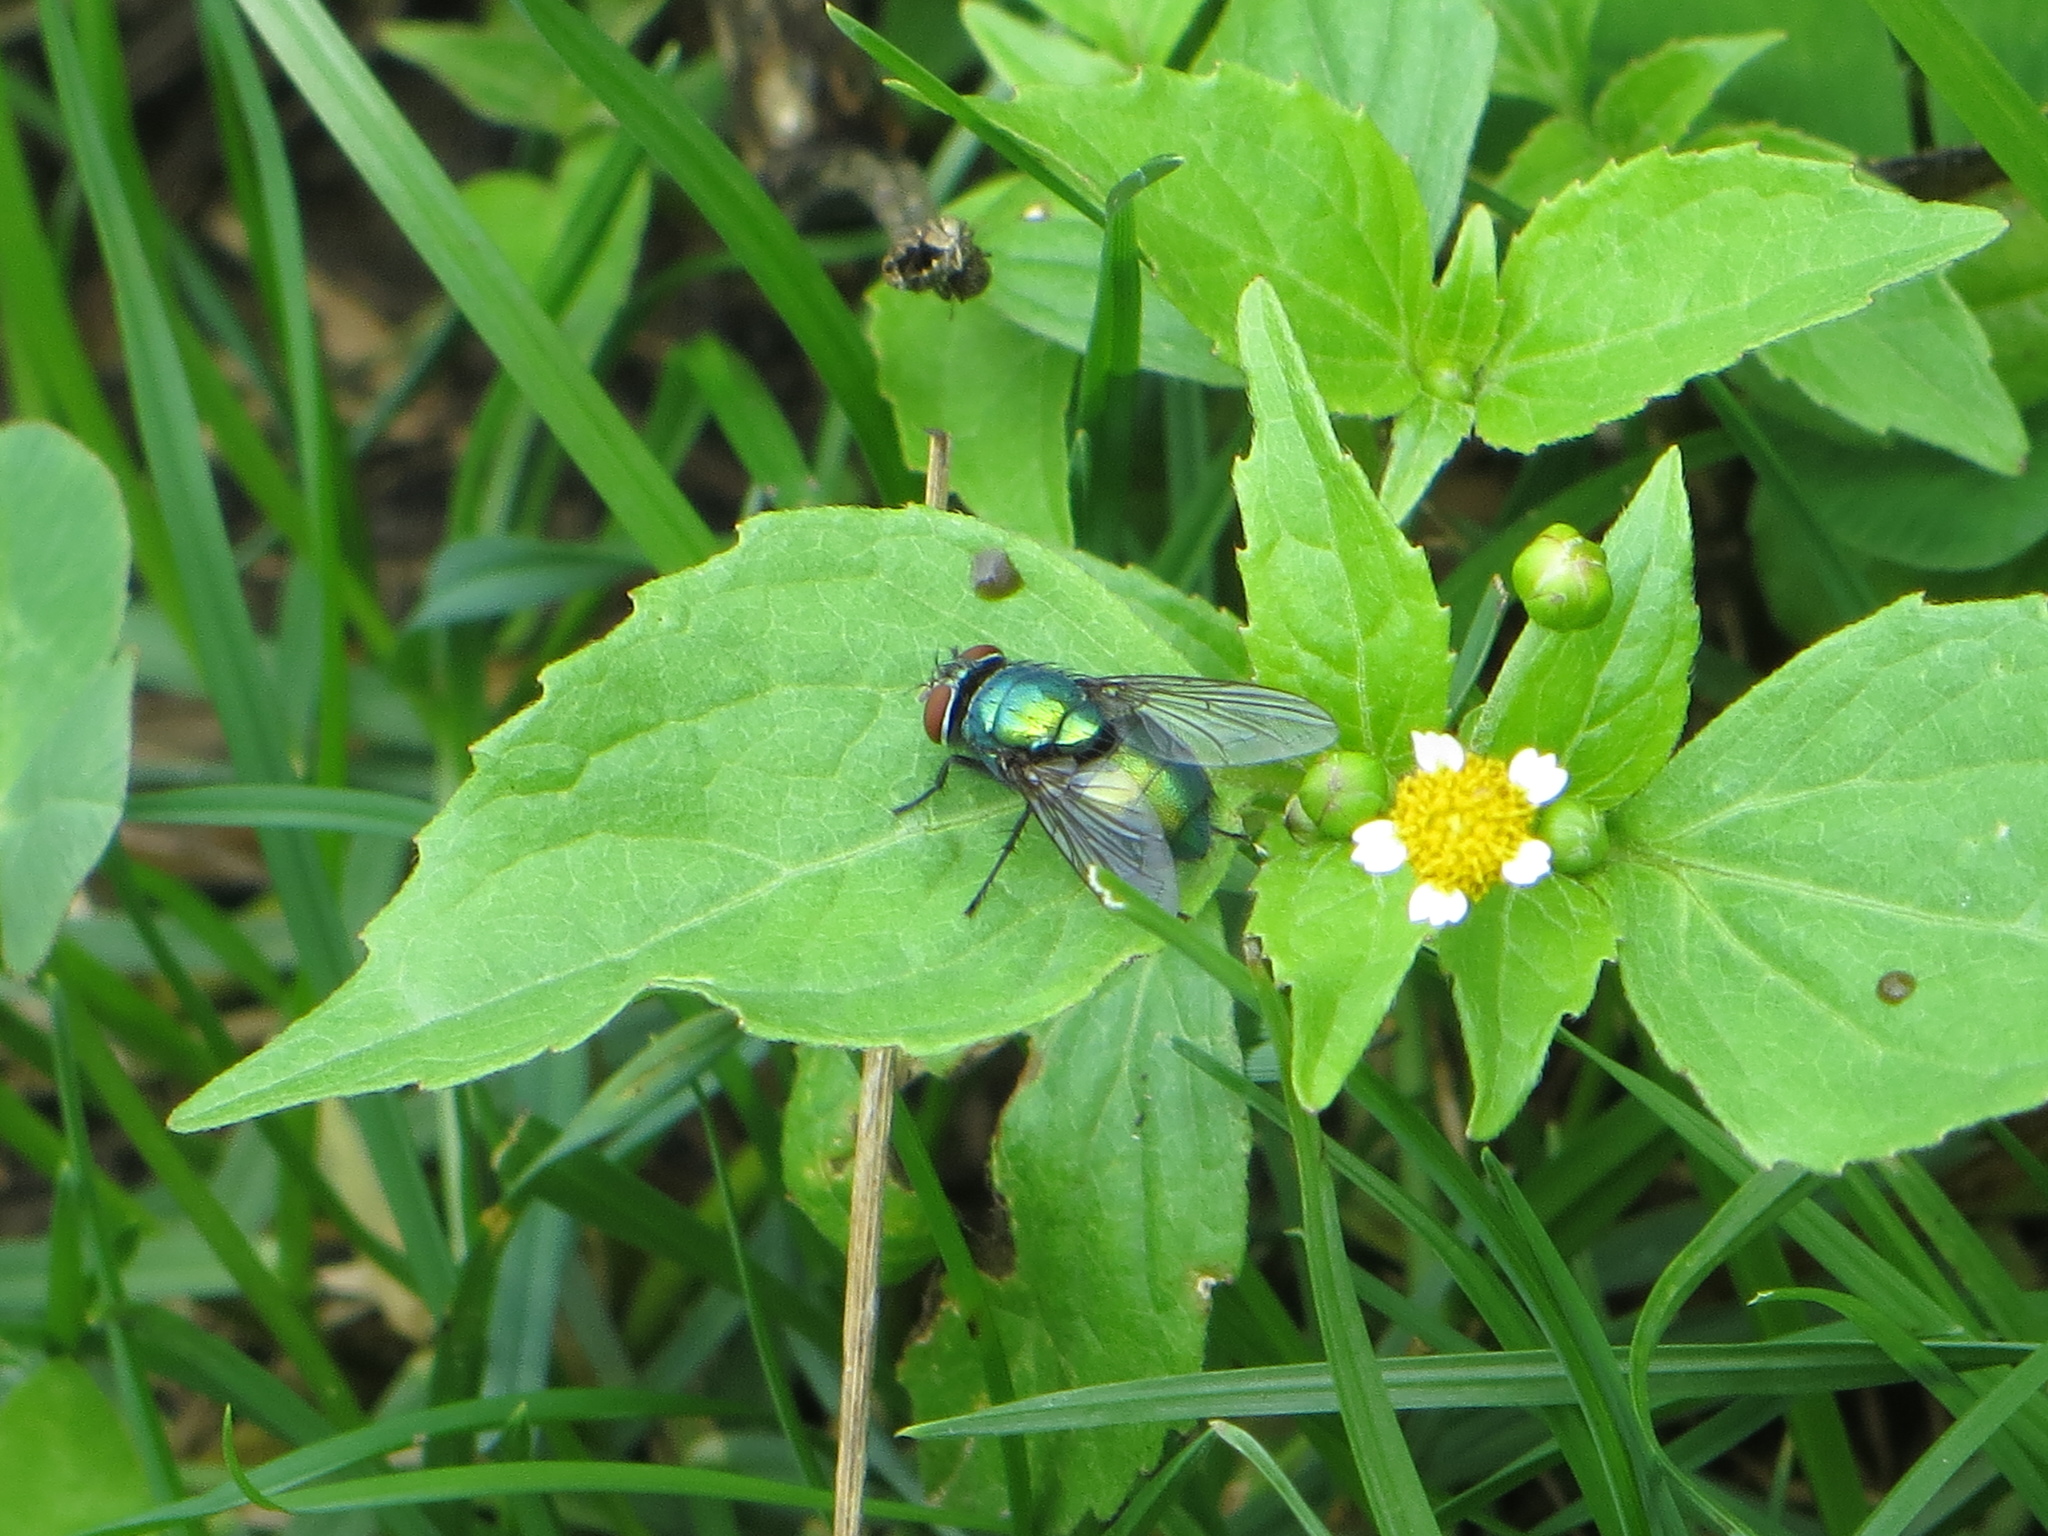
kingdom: Animalia
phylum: Arthropoda
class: Insecta
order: Diptera
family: Calliphoridae
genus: Lucilia
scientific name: Lucilia caesar
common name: Blow fly
